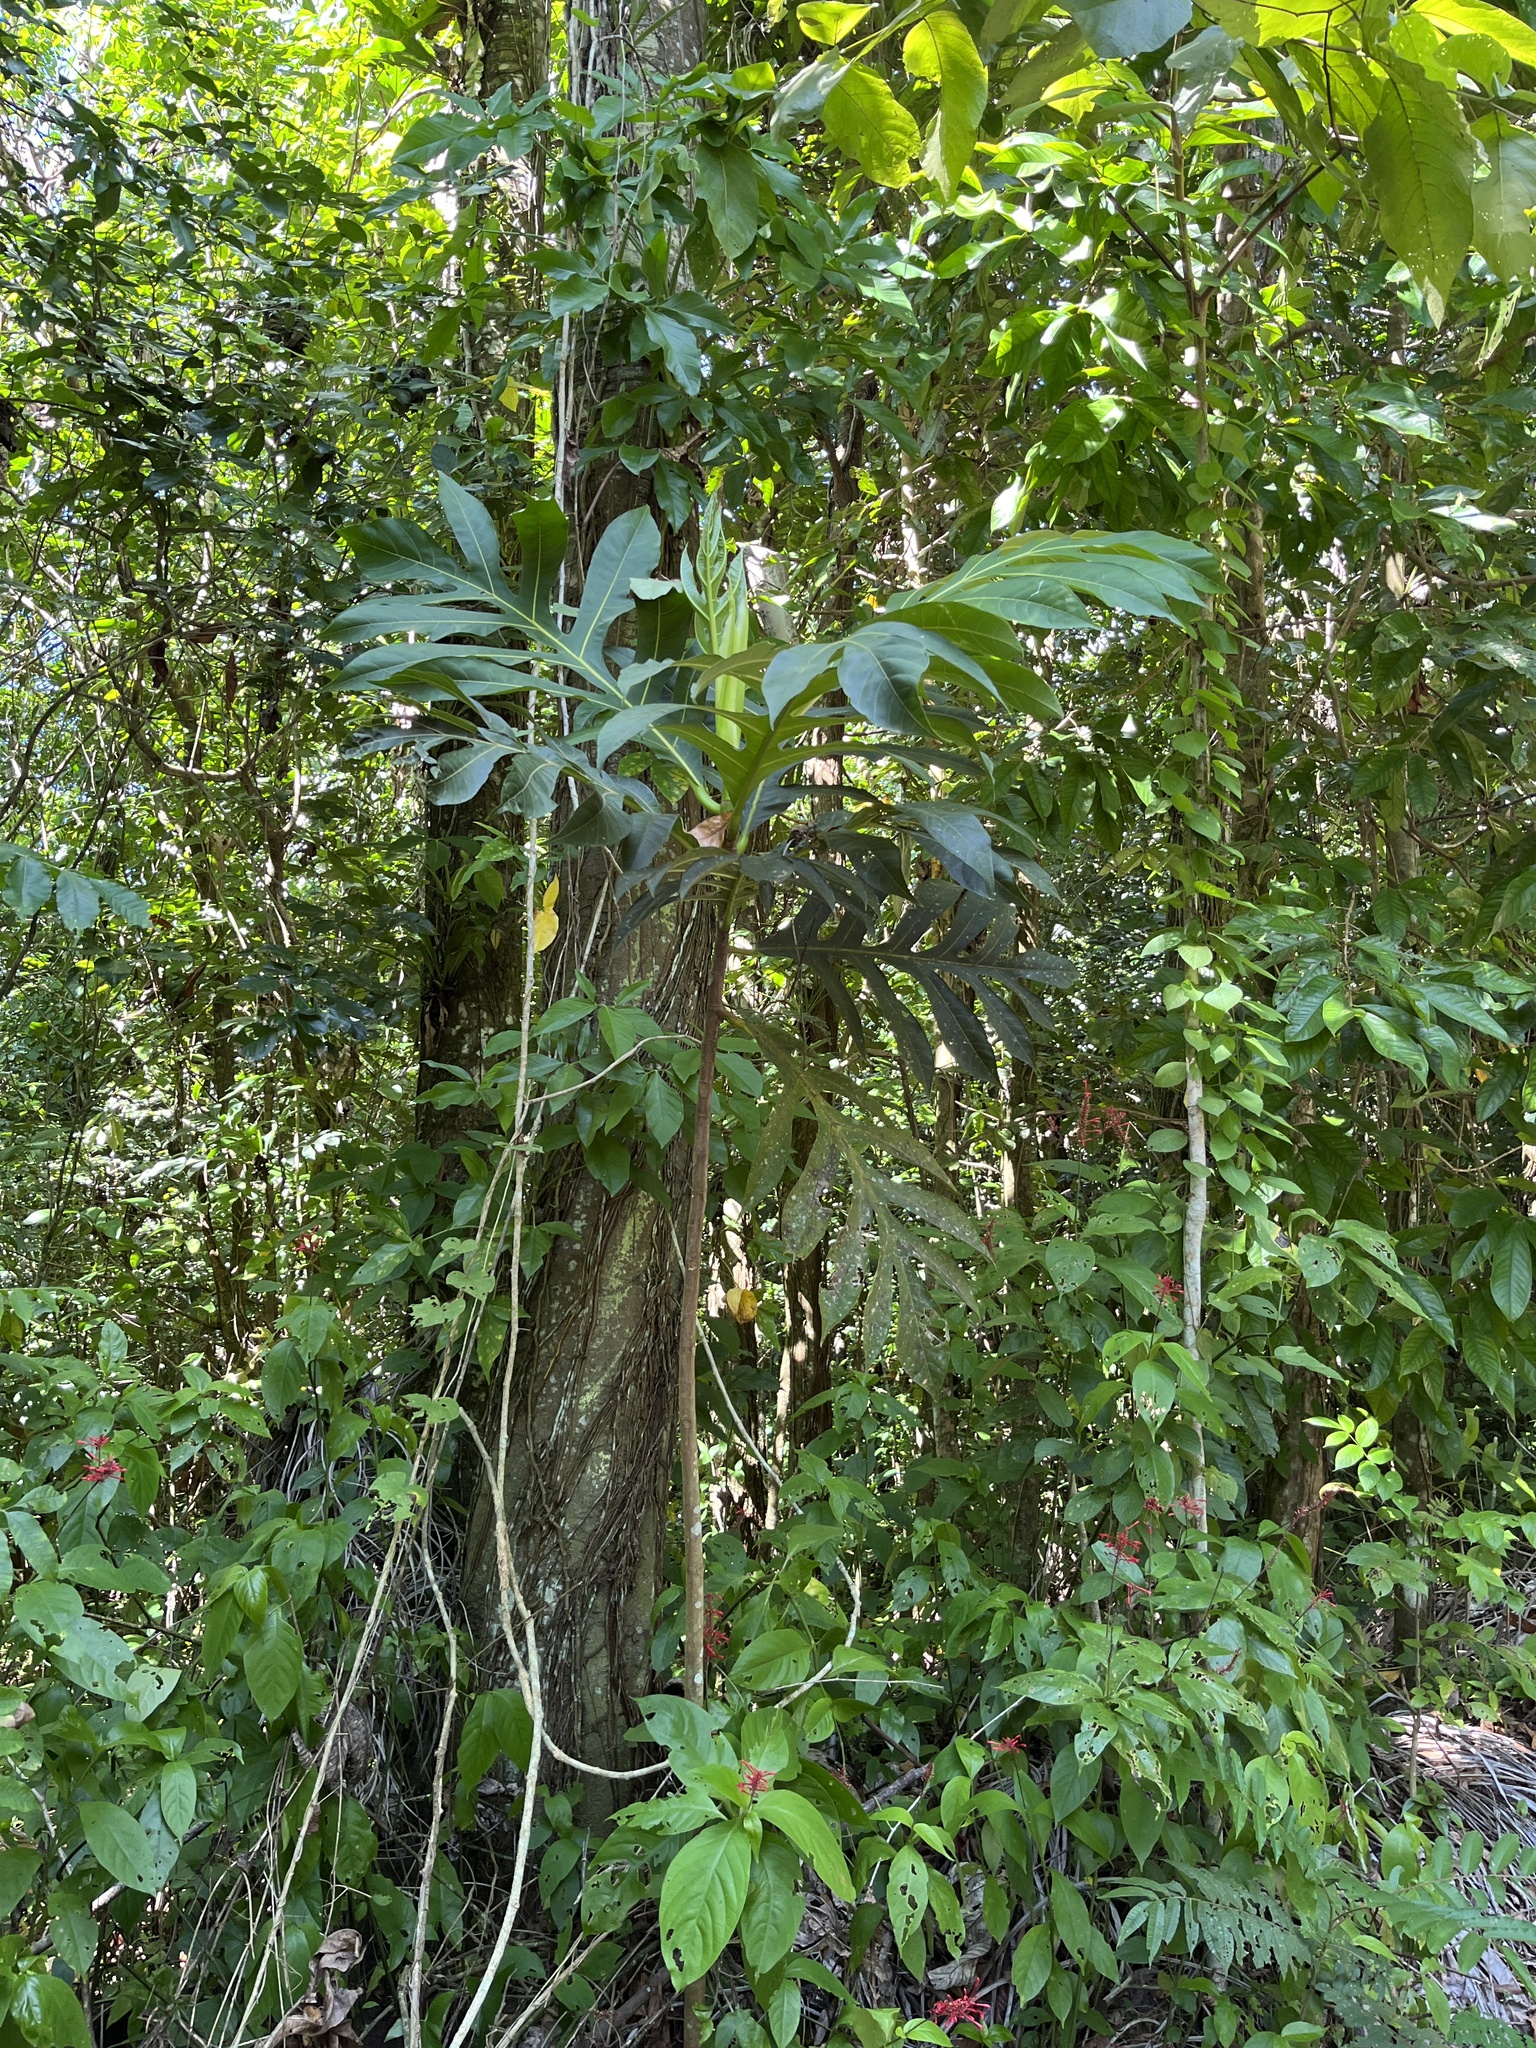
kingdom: Plantae
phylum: Tracheophyta
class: Magnoliopsida
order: Rosales
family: Moraceae
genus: Artocarpus
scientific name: Artocarpus altilis
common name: Breadfruit
